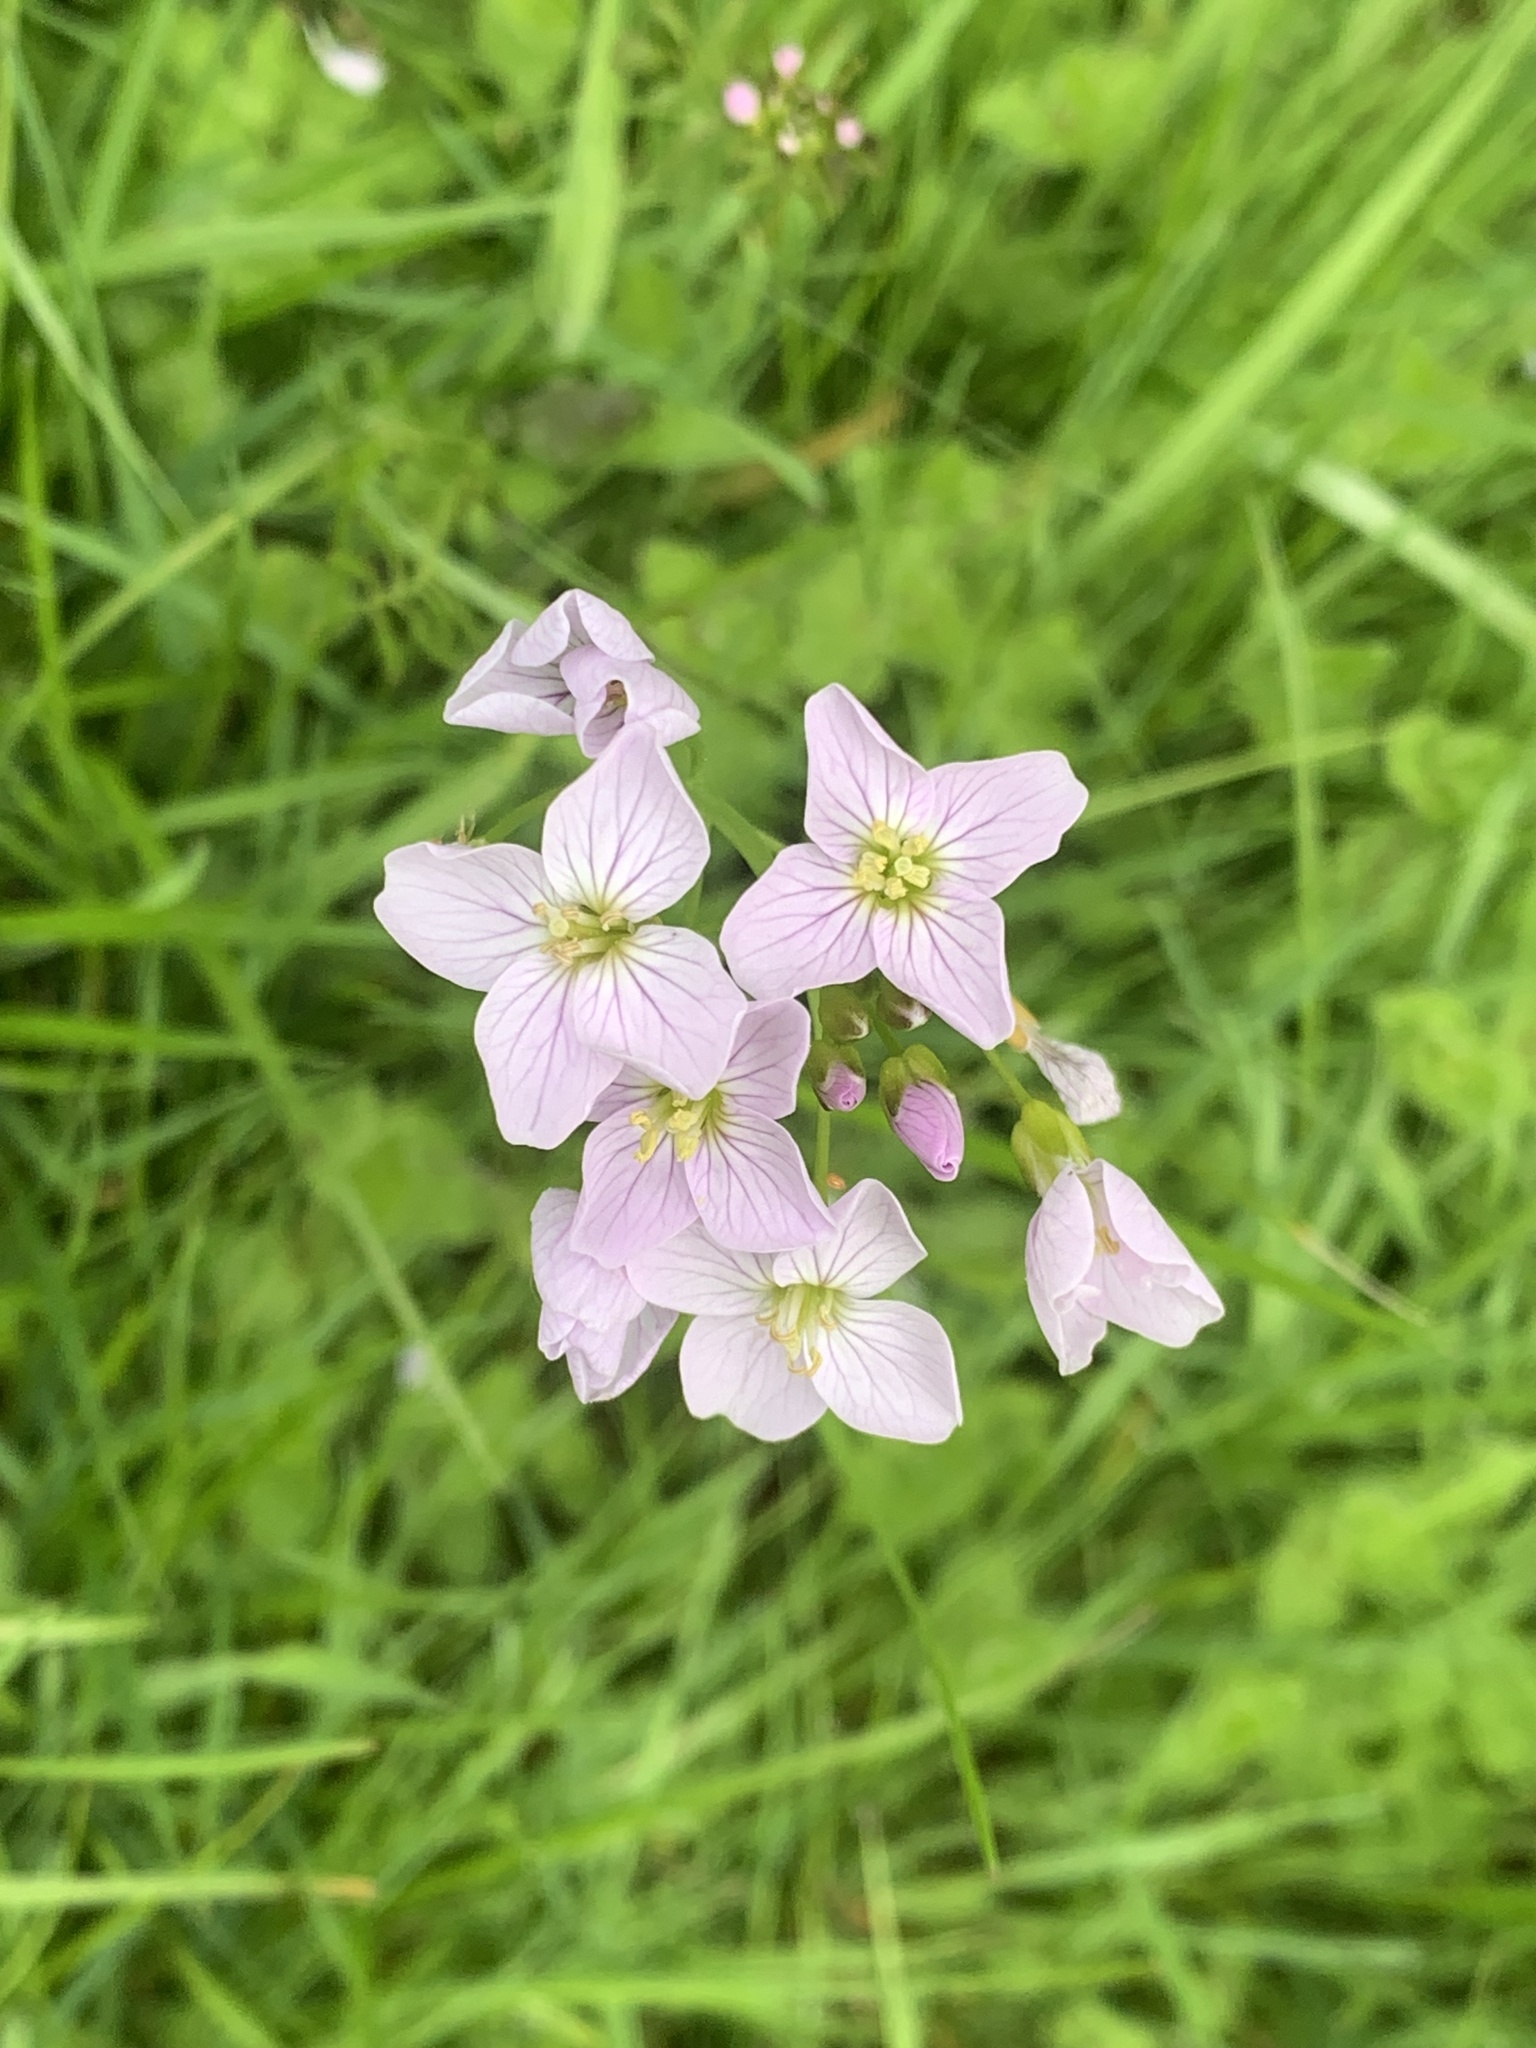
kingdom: Plantae
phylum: Tracheophyta
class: Magnoliopsida
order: Brassicales
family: Brassicaceae
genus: Cardamine
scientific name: Cardamine pratensis
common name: Cuckoo flower
